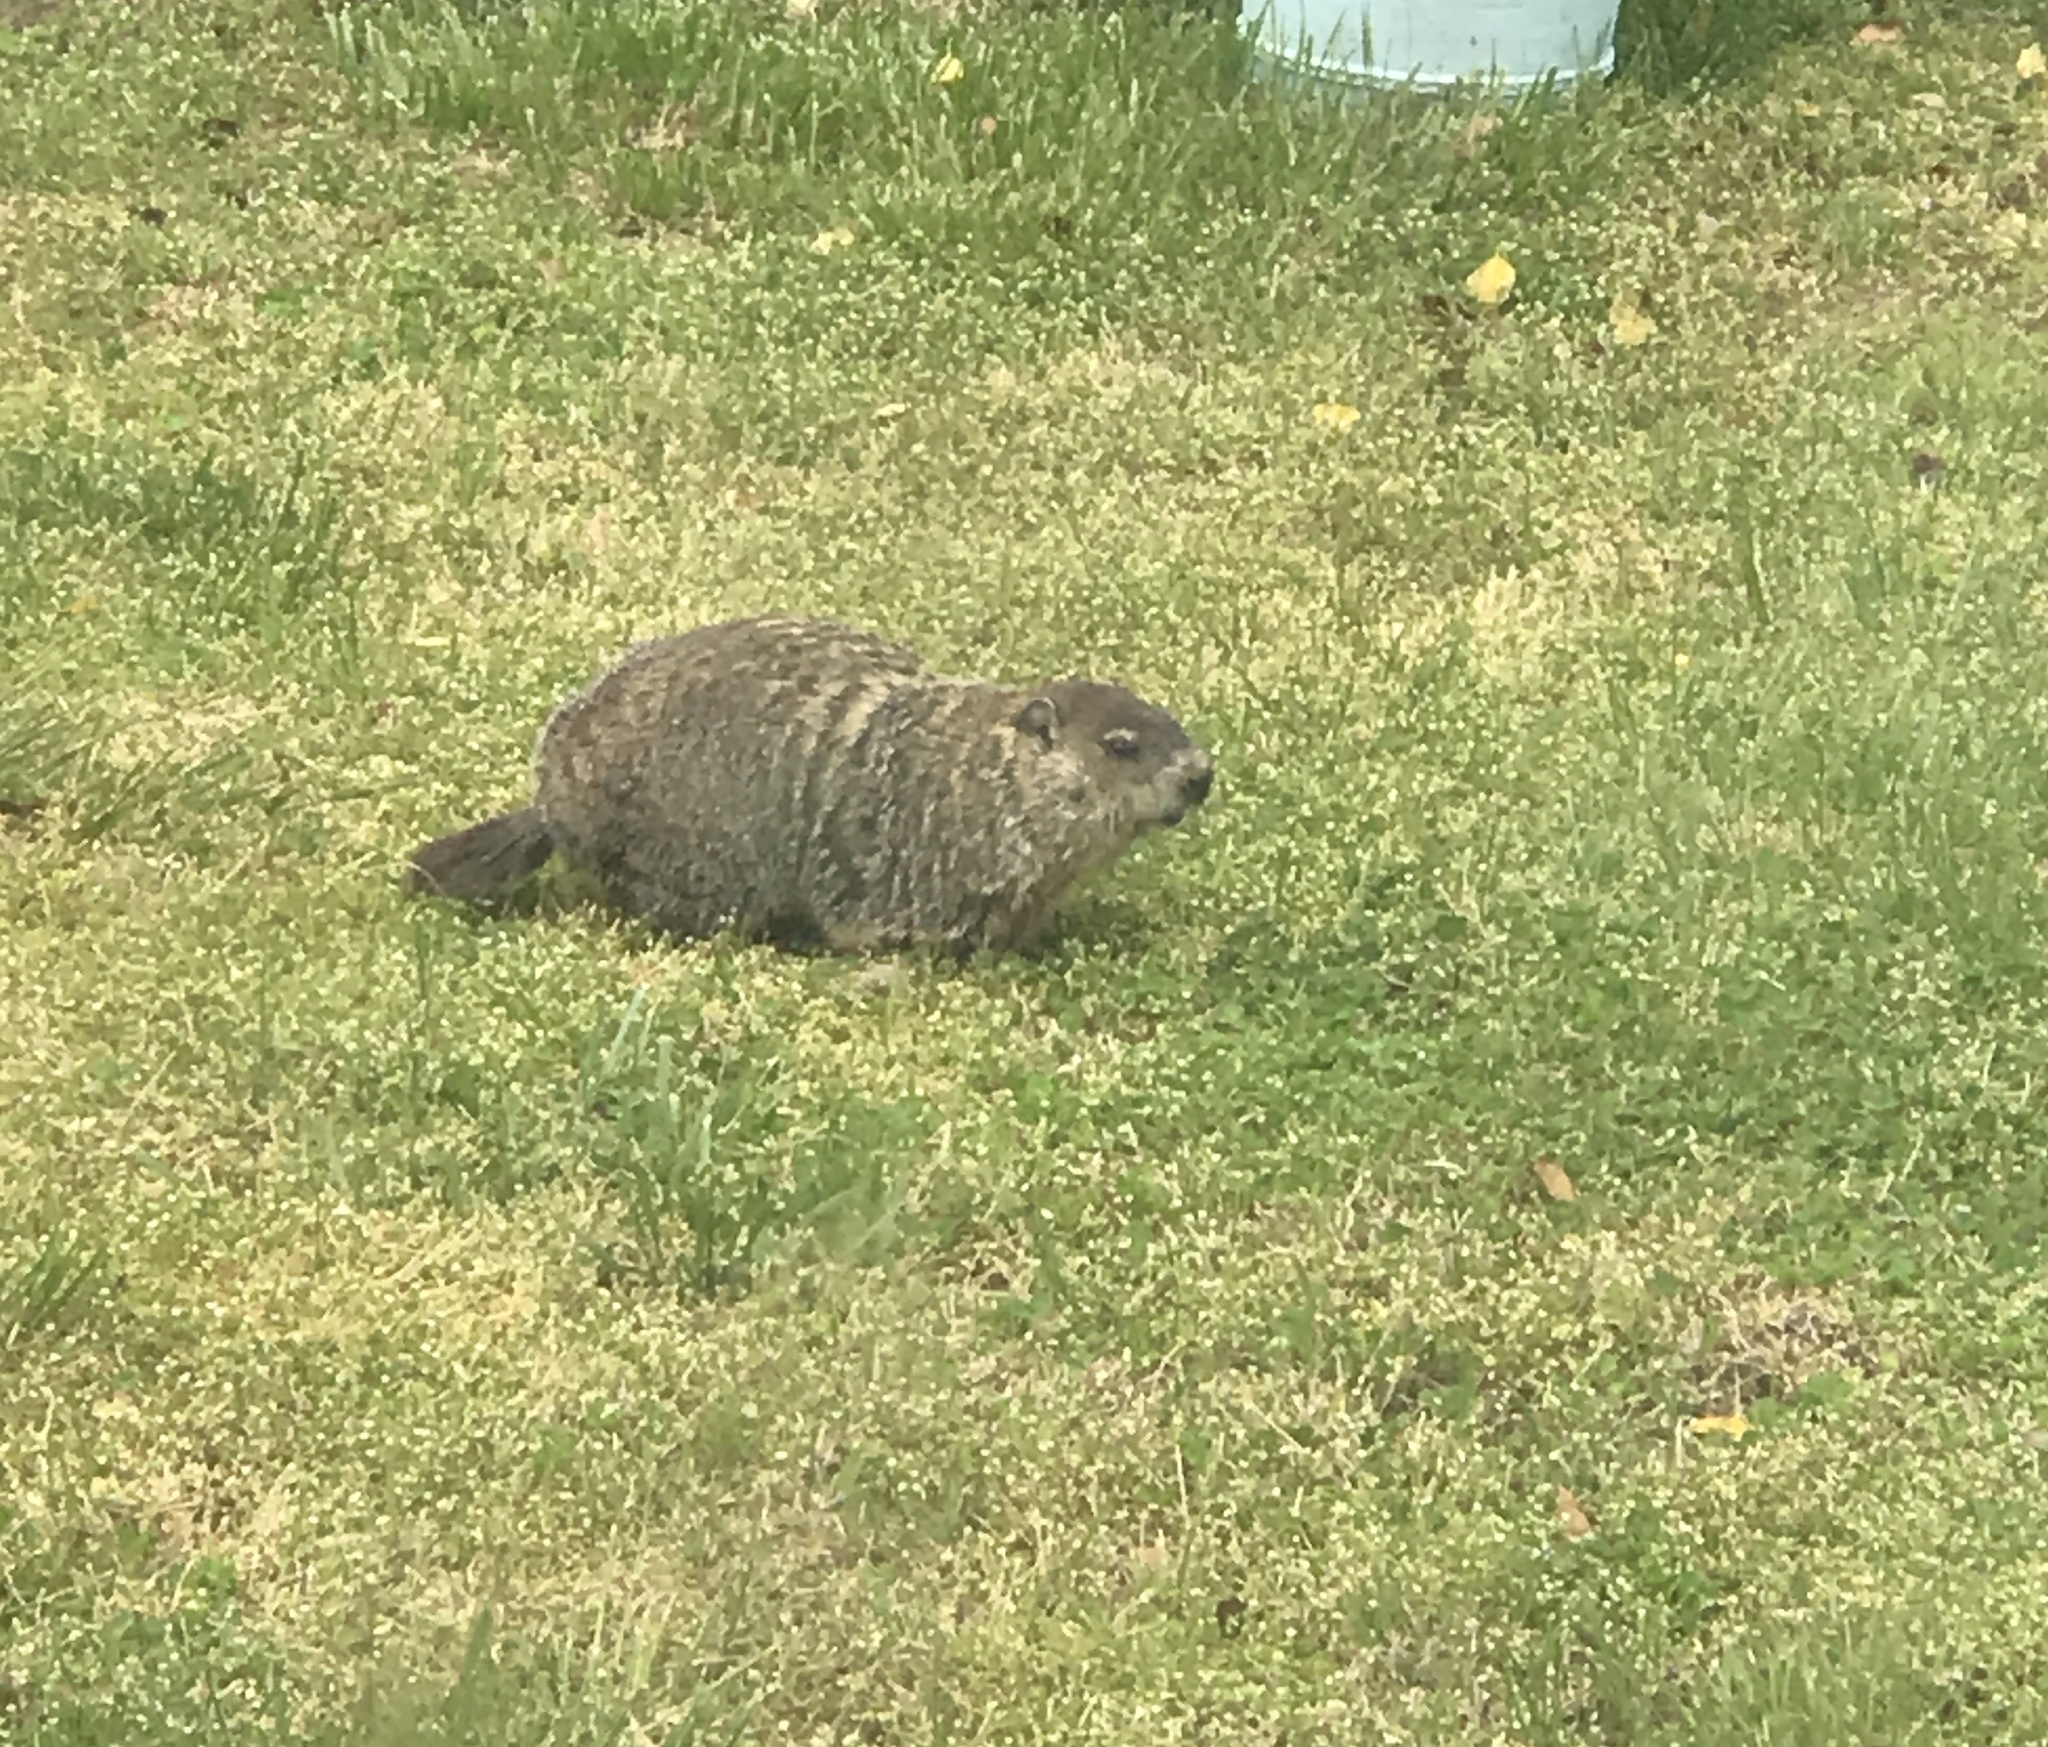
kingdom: Animalia
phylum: Chordata
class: Mammalia
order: Rodentia
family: Sciuridae
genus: Marmota
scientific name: Marmota monax
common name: Groundhog
